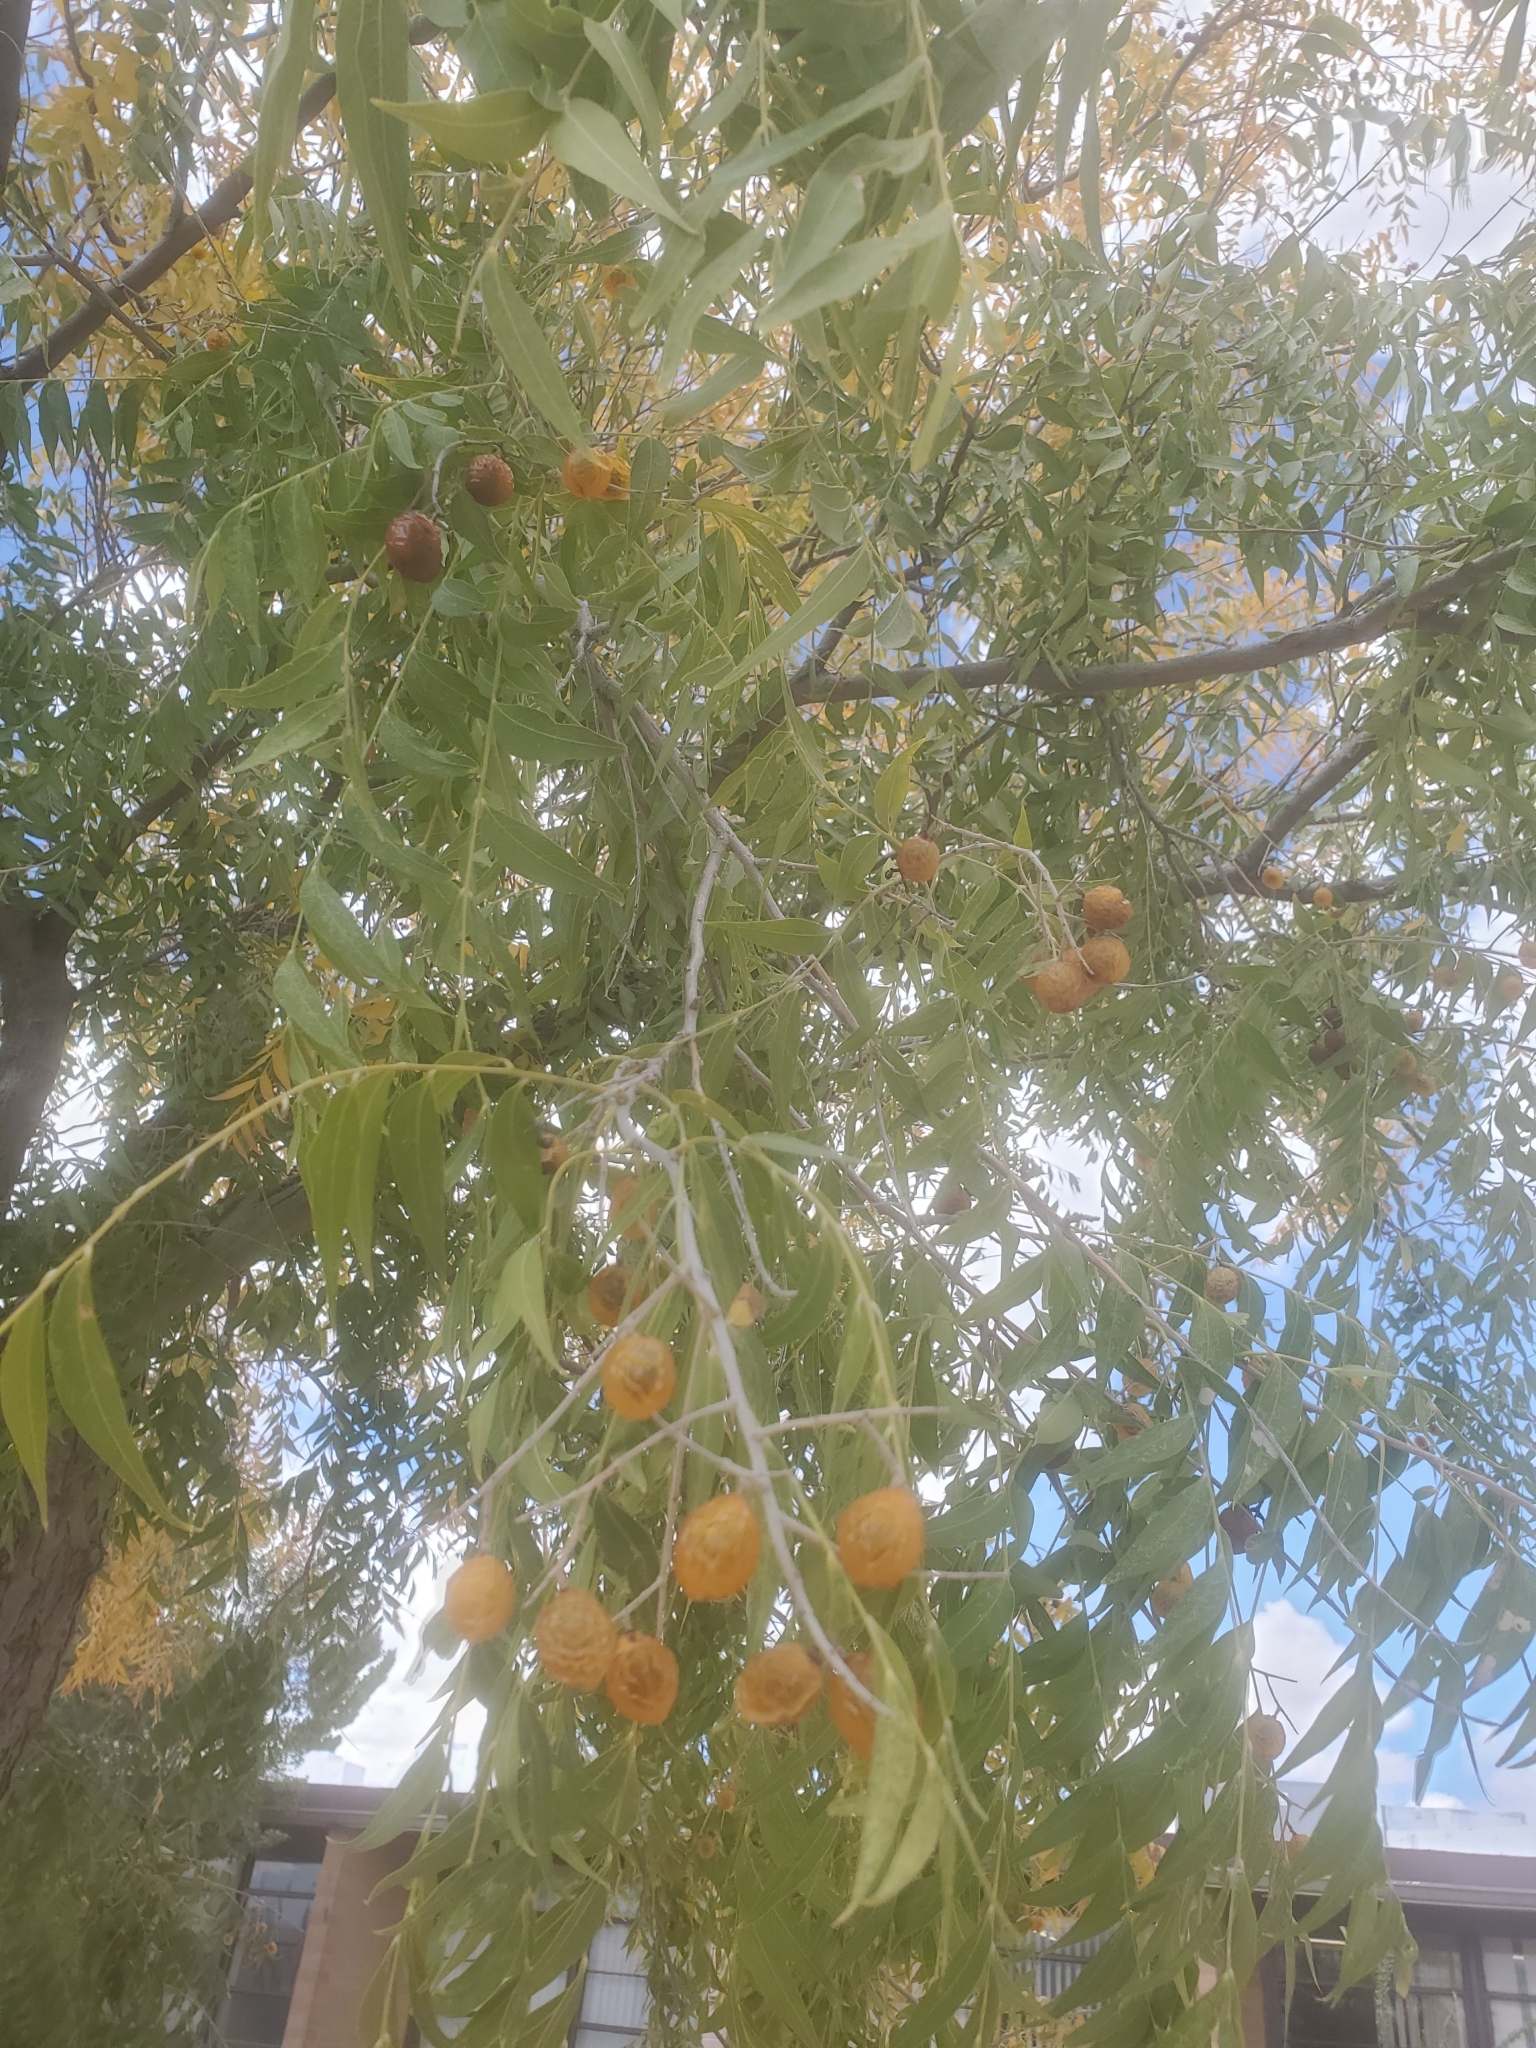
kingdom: Plantae
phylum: Tracheophyta
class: Magnoliopsida
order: Sapindales
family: Sapindaceae
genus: Sapindus
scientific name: Sapindus drummondii
